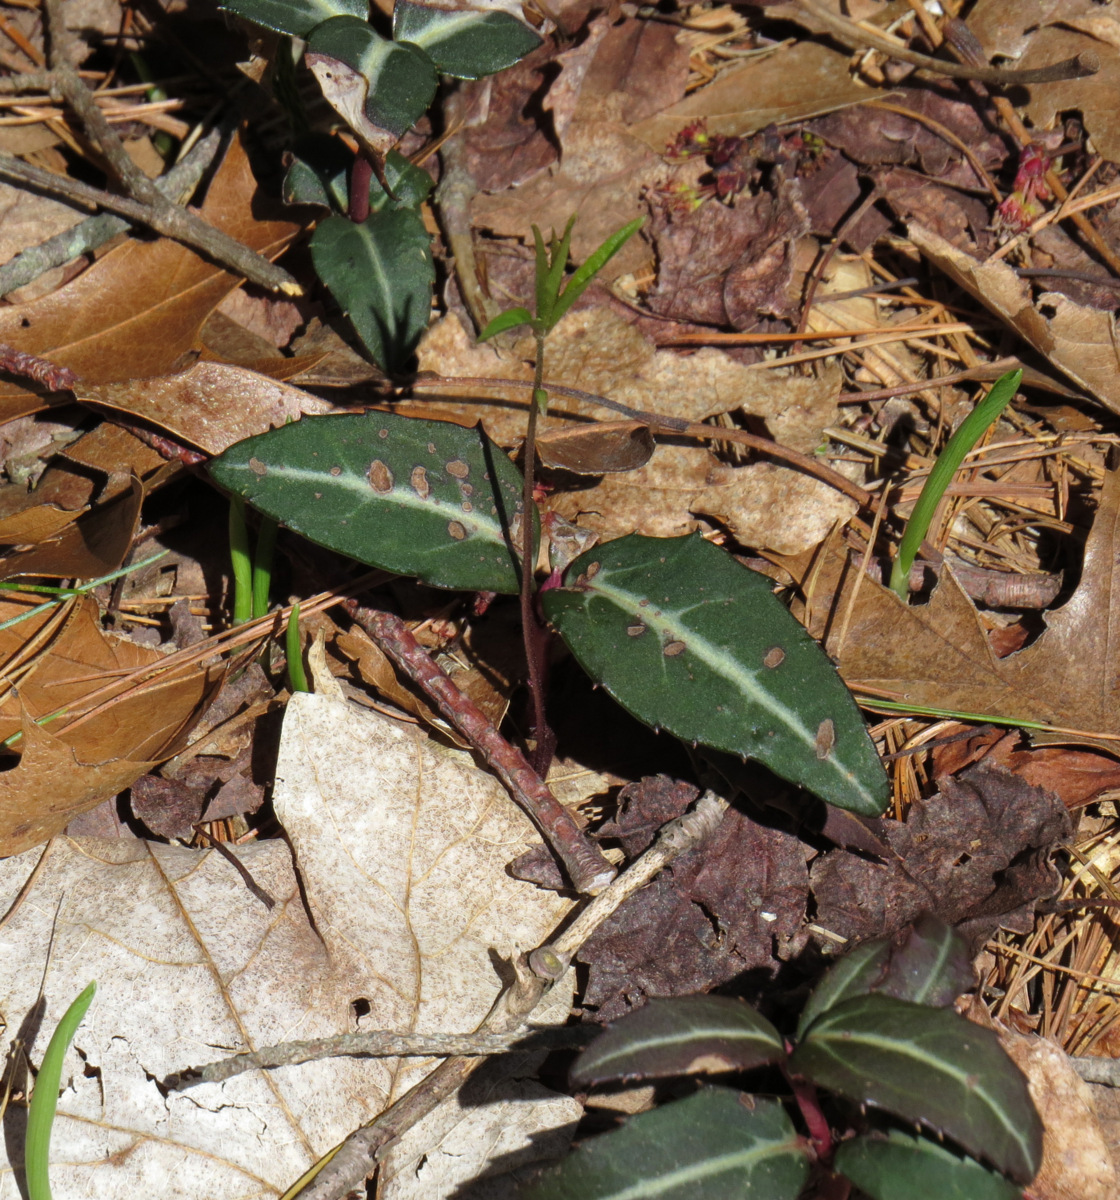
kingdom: Plantae
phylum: Tracheophyta
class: Magnoliopsida
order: Ericales
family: Ericaceae
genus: Chimaphila
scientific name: Chimaphila maculata
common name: Spotted pipsissewa
